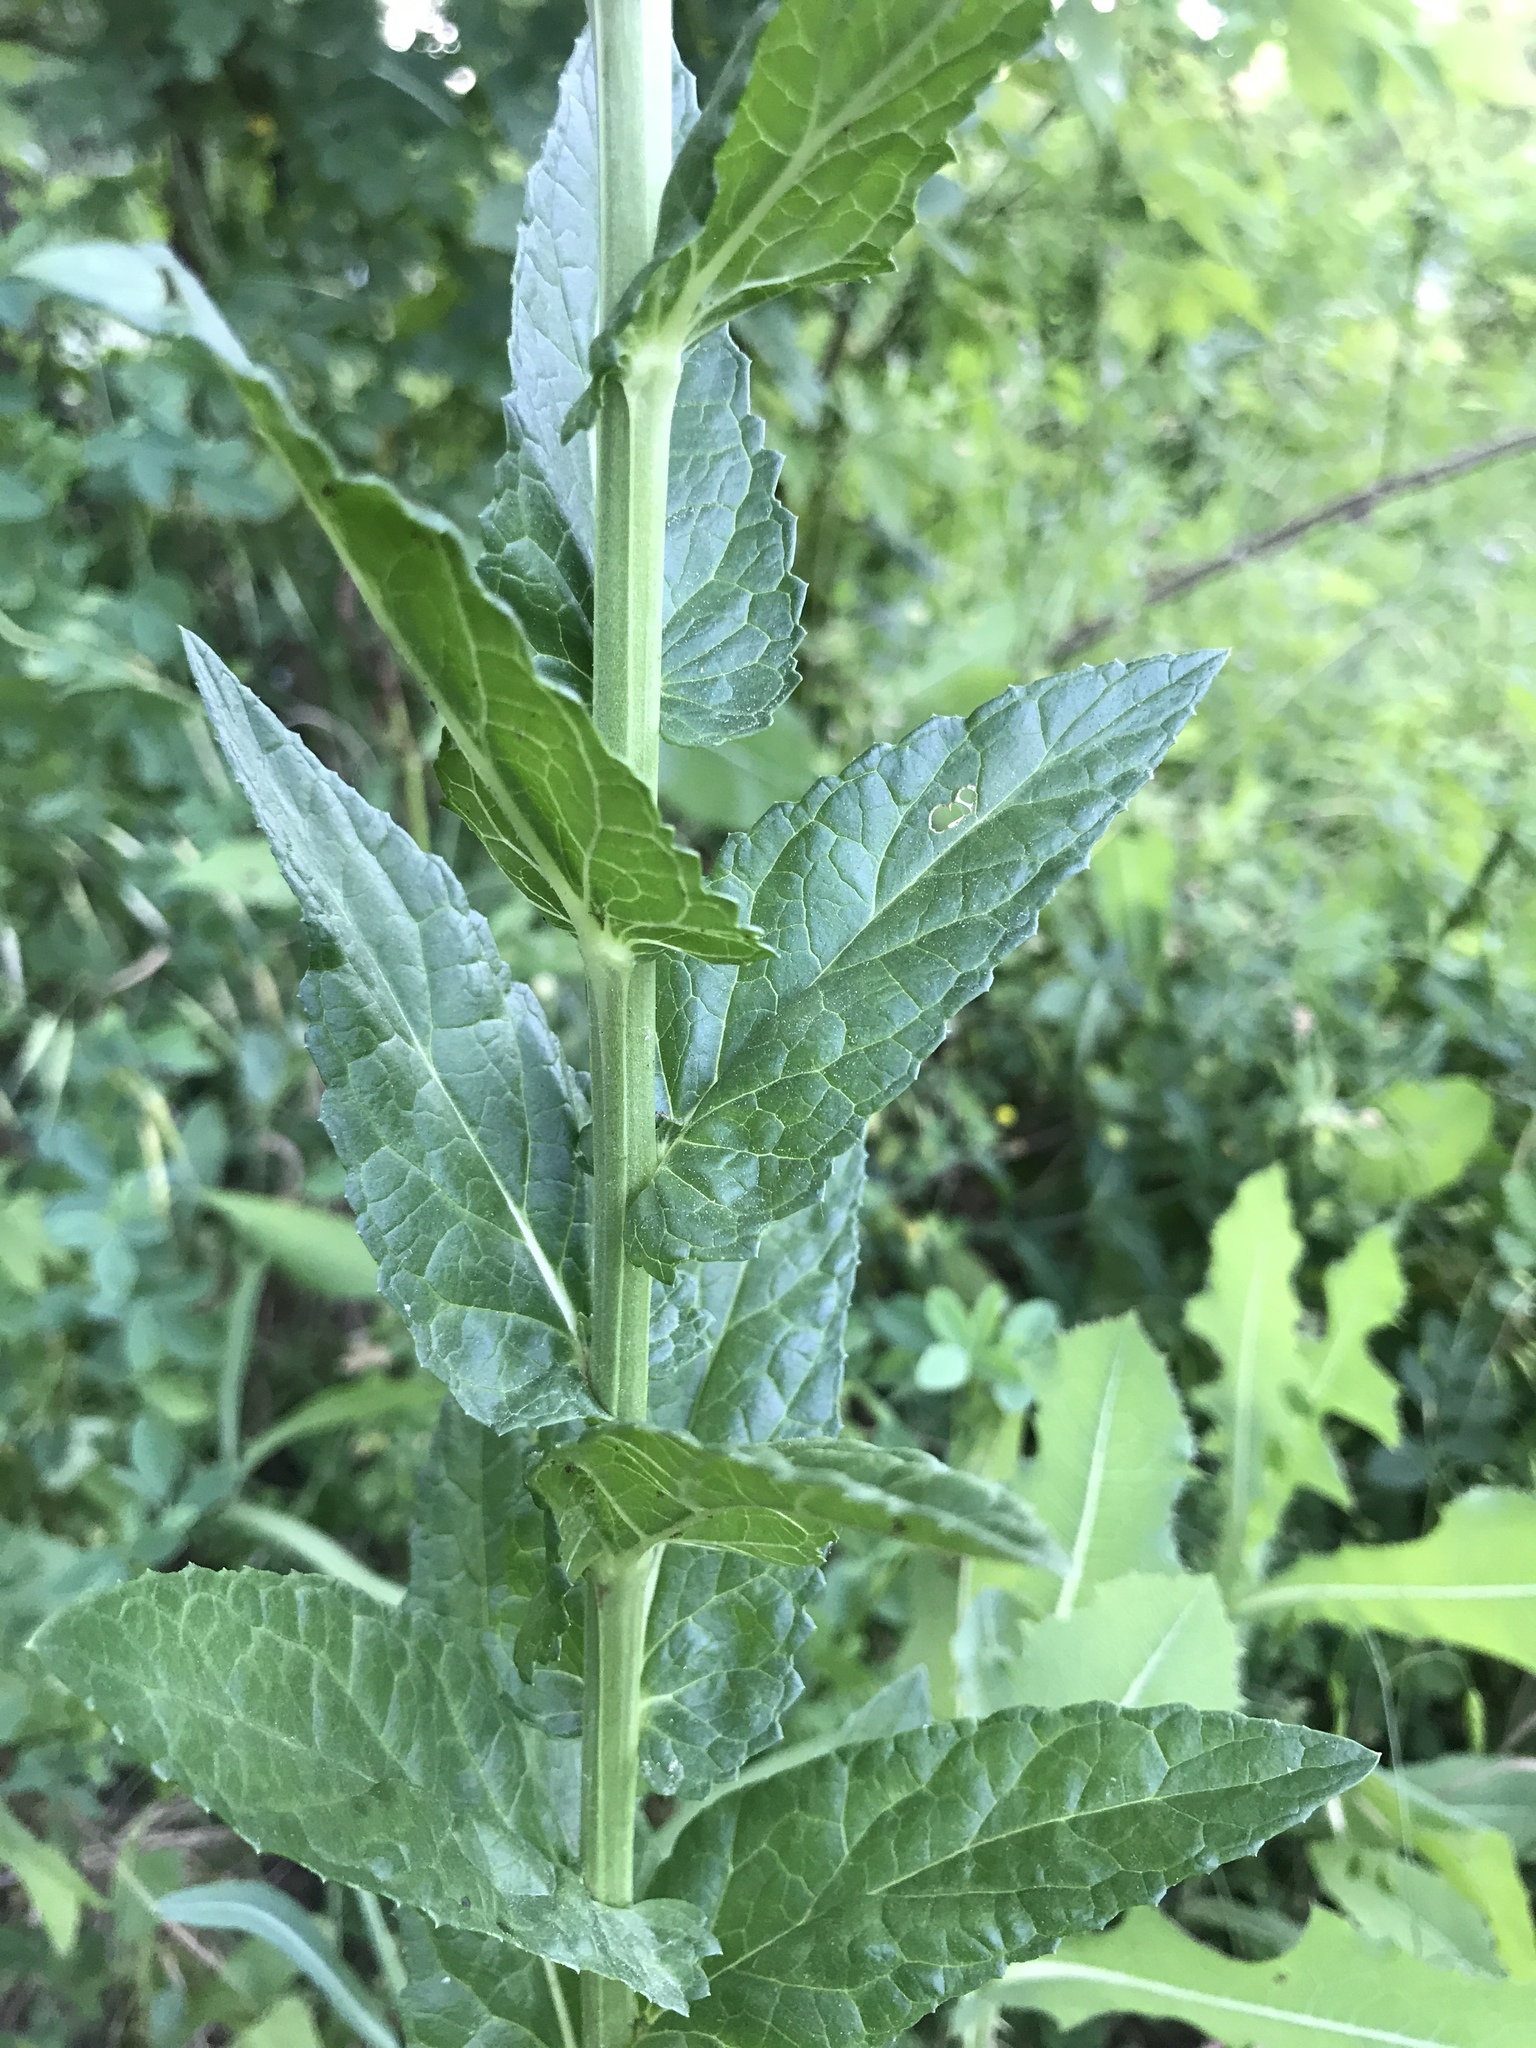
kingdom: Plantae
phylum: Tracheophyta
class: Magnoliopsida
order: Lamiales
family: Scrophulariaceae
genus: Verbascum
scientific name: Verbascum blattaria
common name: Moth mullein
